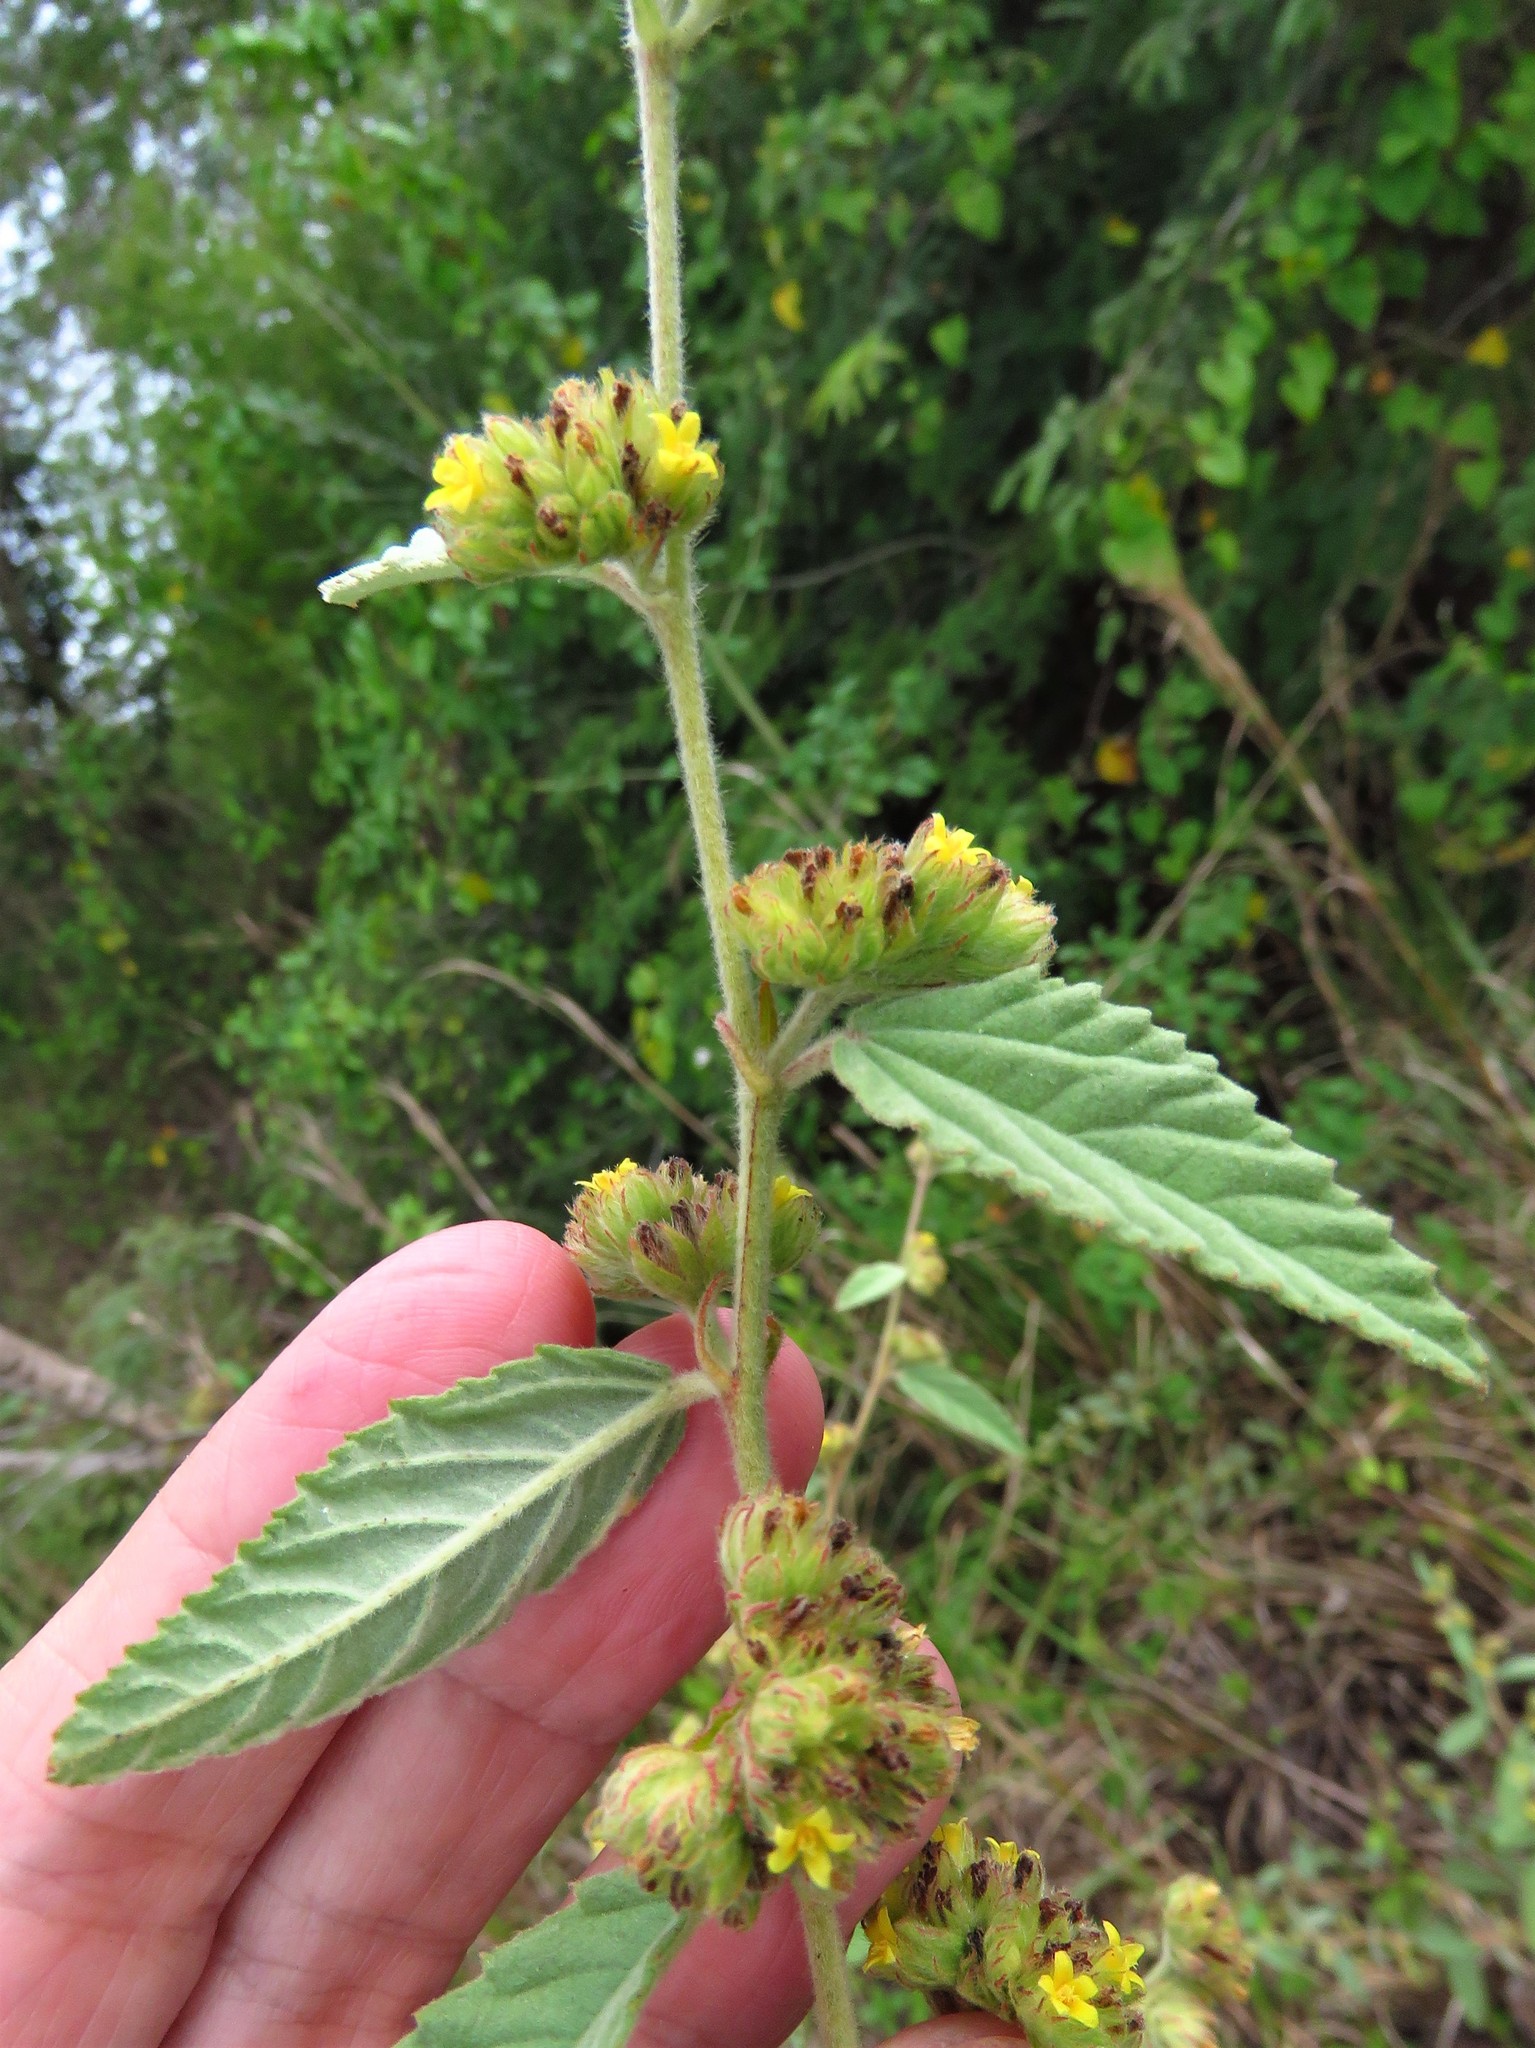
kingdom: Plantae
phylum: Tracheophyta
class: Magnoliopsida
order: Malvales
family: Malvaceae
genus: Waltheria
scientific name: Waltheria indica
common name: Leather-coat
